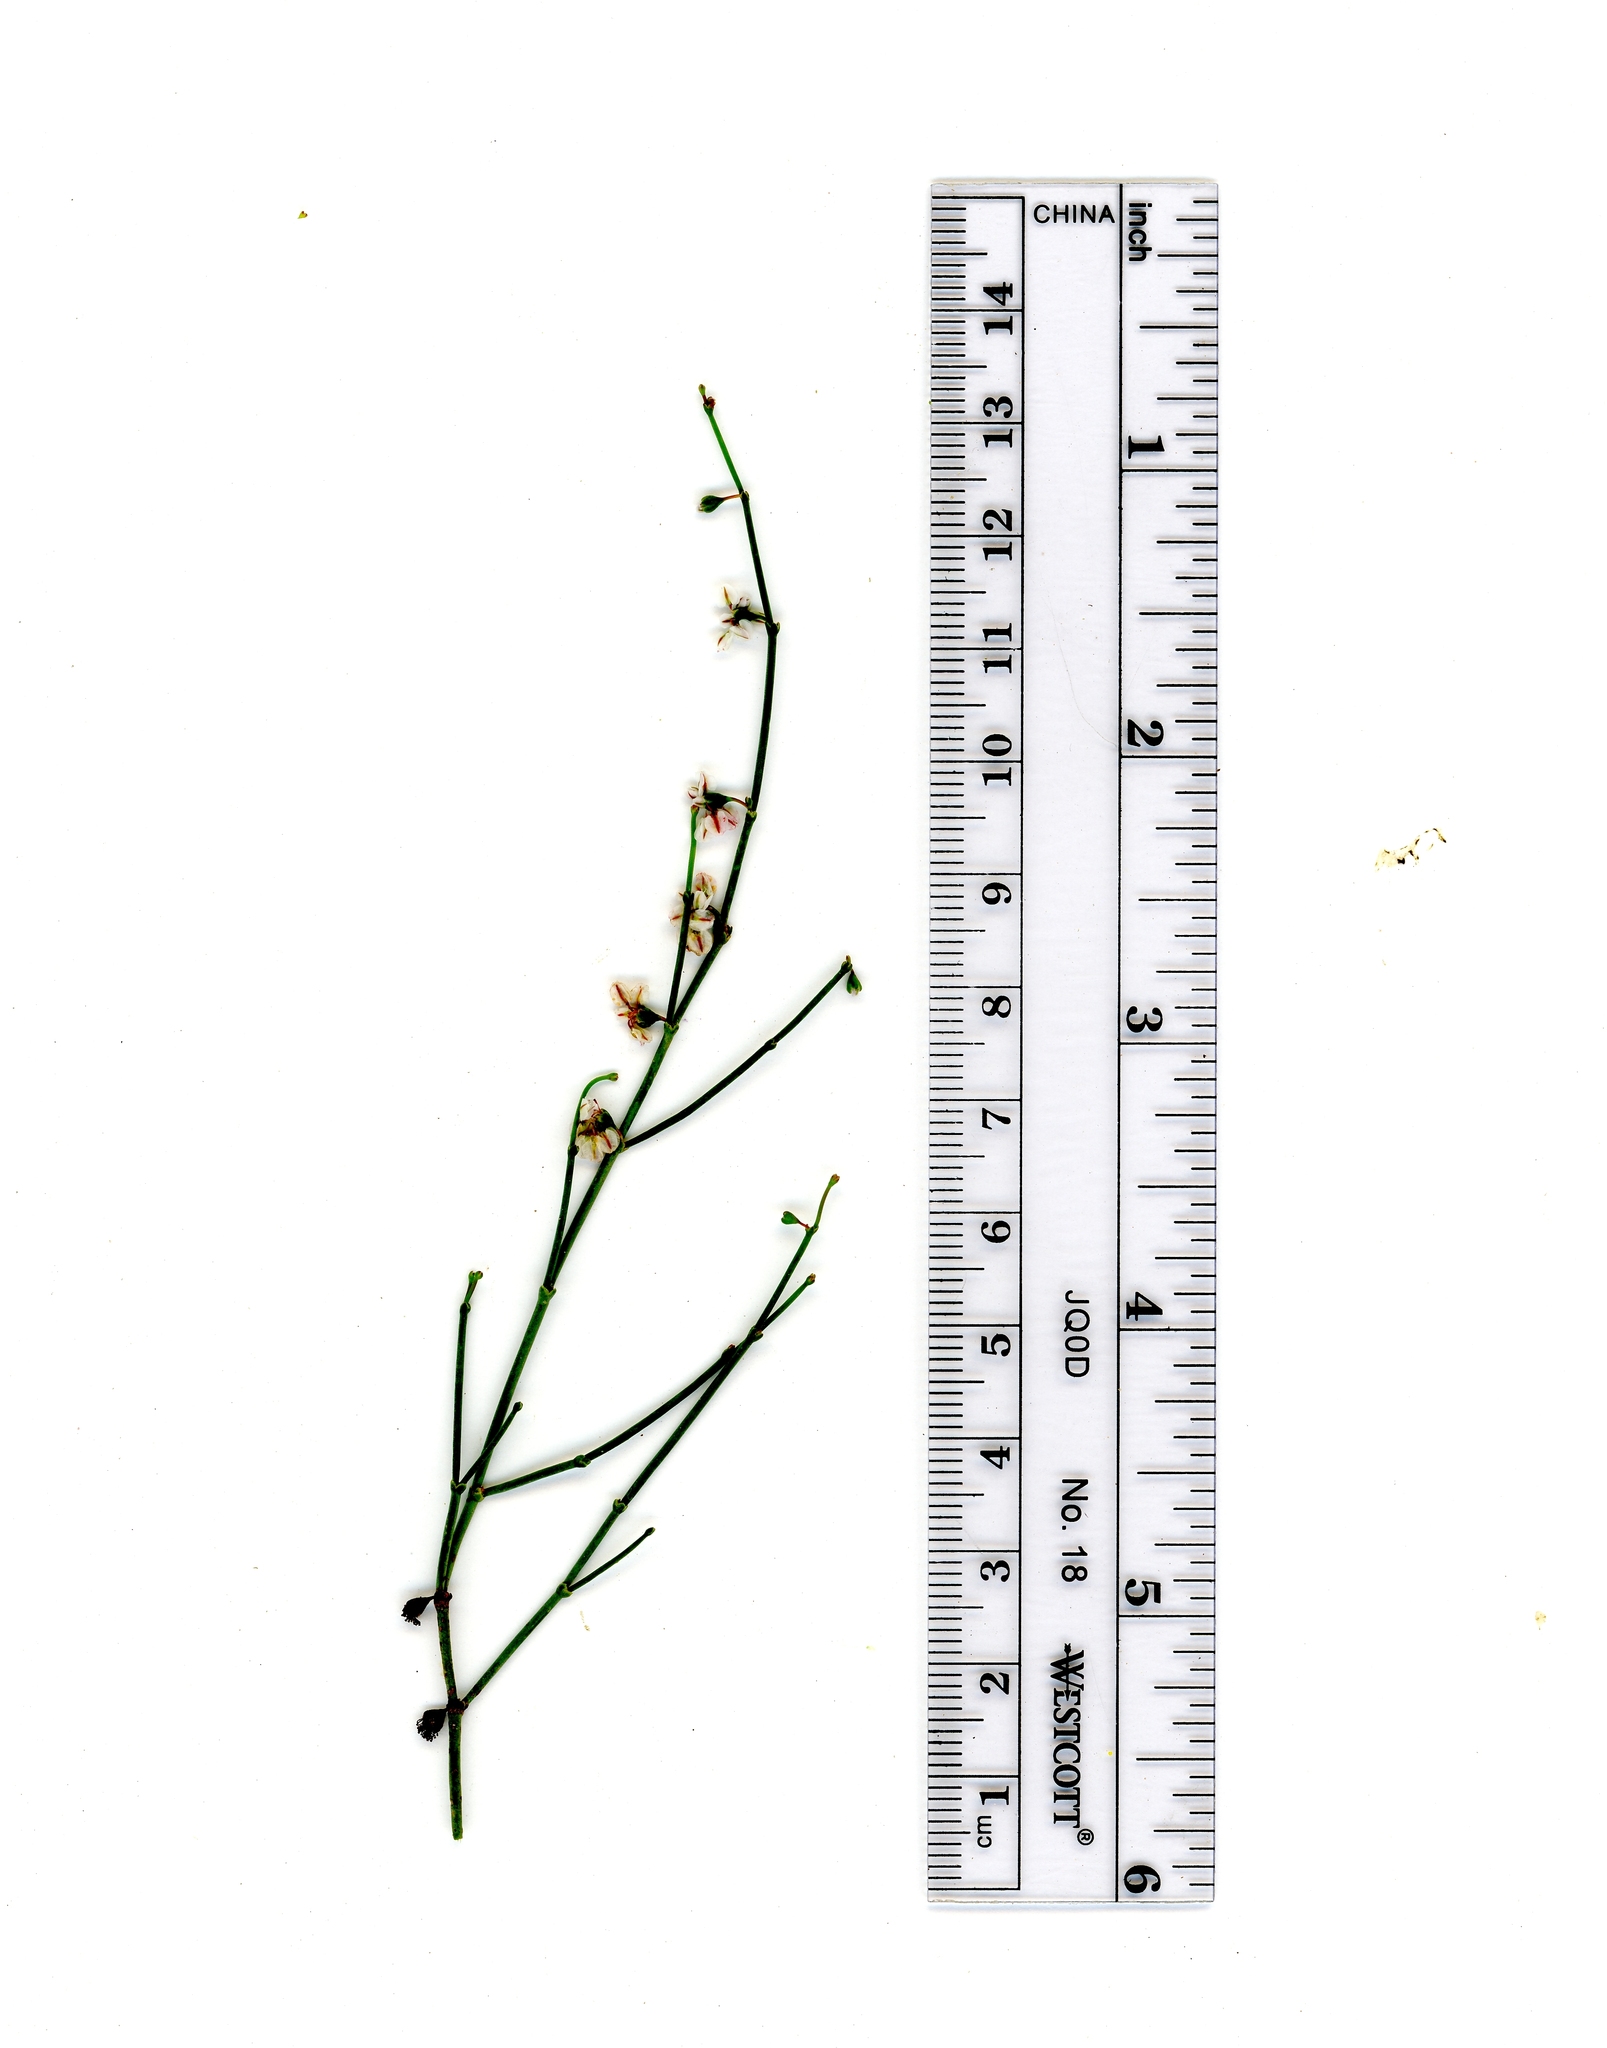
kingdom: Plantae
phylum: Tracheophyta
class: Magnoliopsida
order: Caryophyllales
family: Polygonaceae
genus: Eriogonum
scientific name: Eriogonum deflexum
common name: Skeleton-weed
